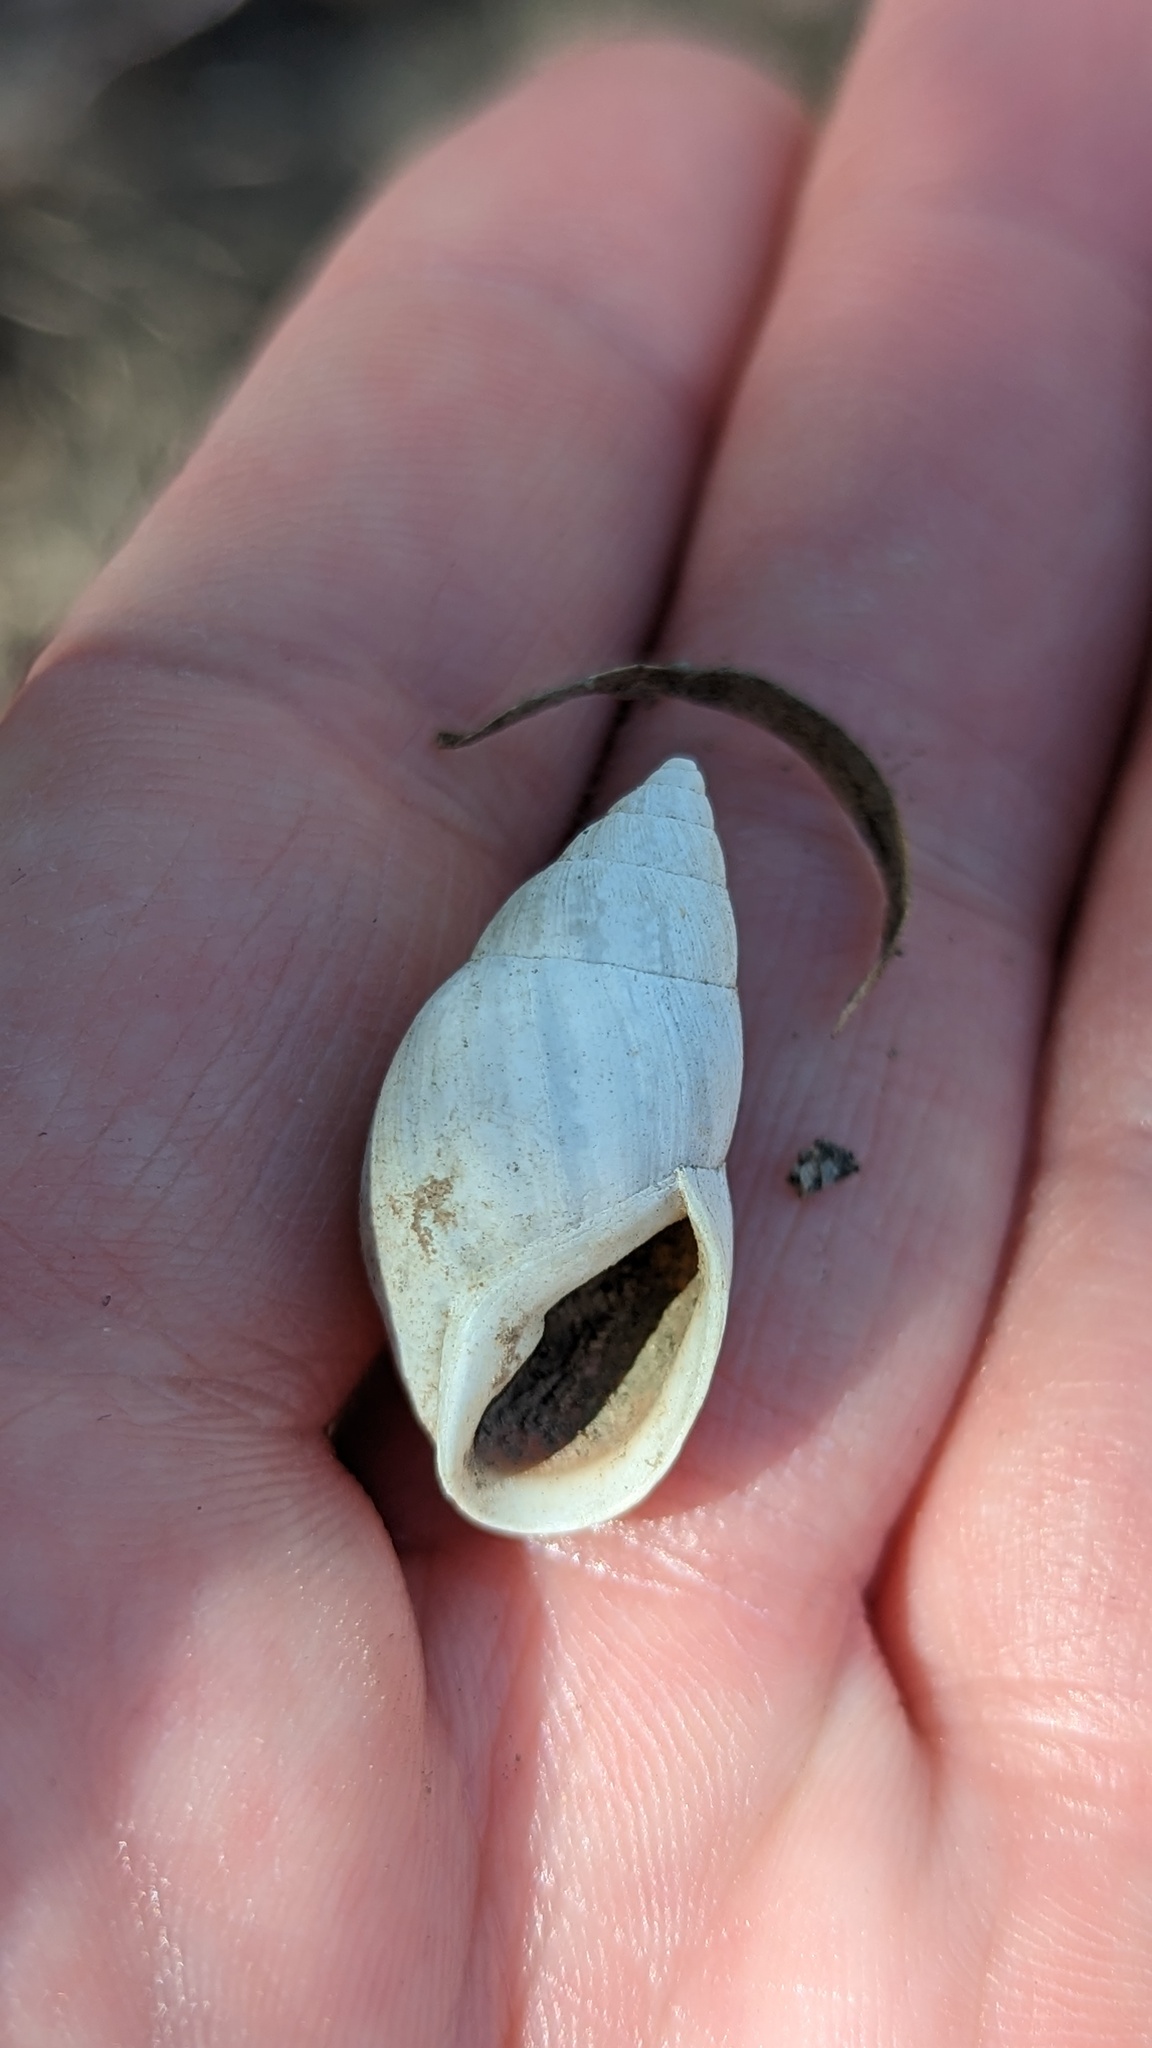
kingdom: Animalia
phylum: Mollusca
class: Gastropoda
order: Stylommatophora
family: Bulimulidae
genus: Rabdotus
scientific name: Rabdotus alternatus
